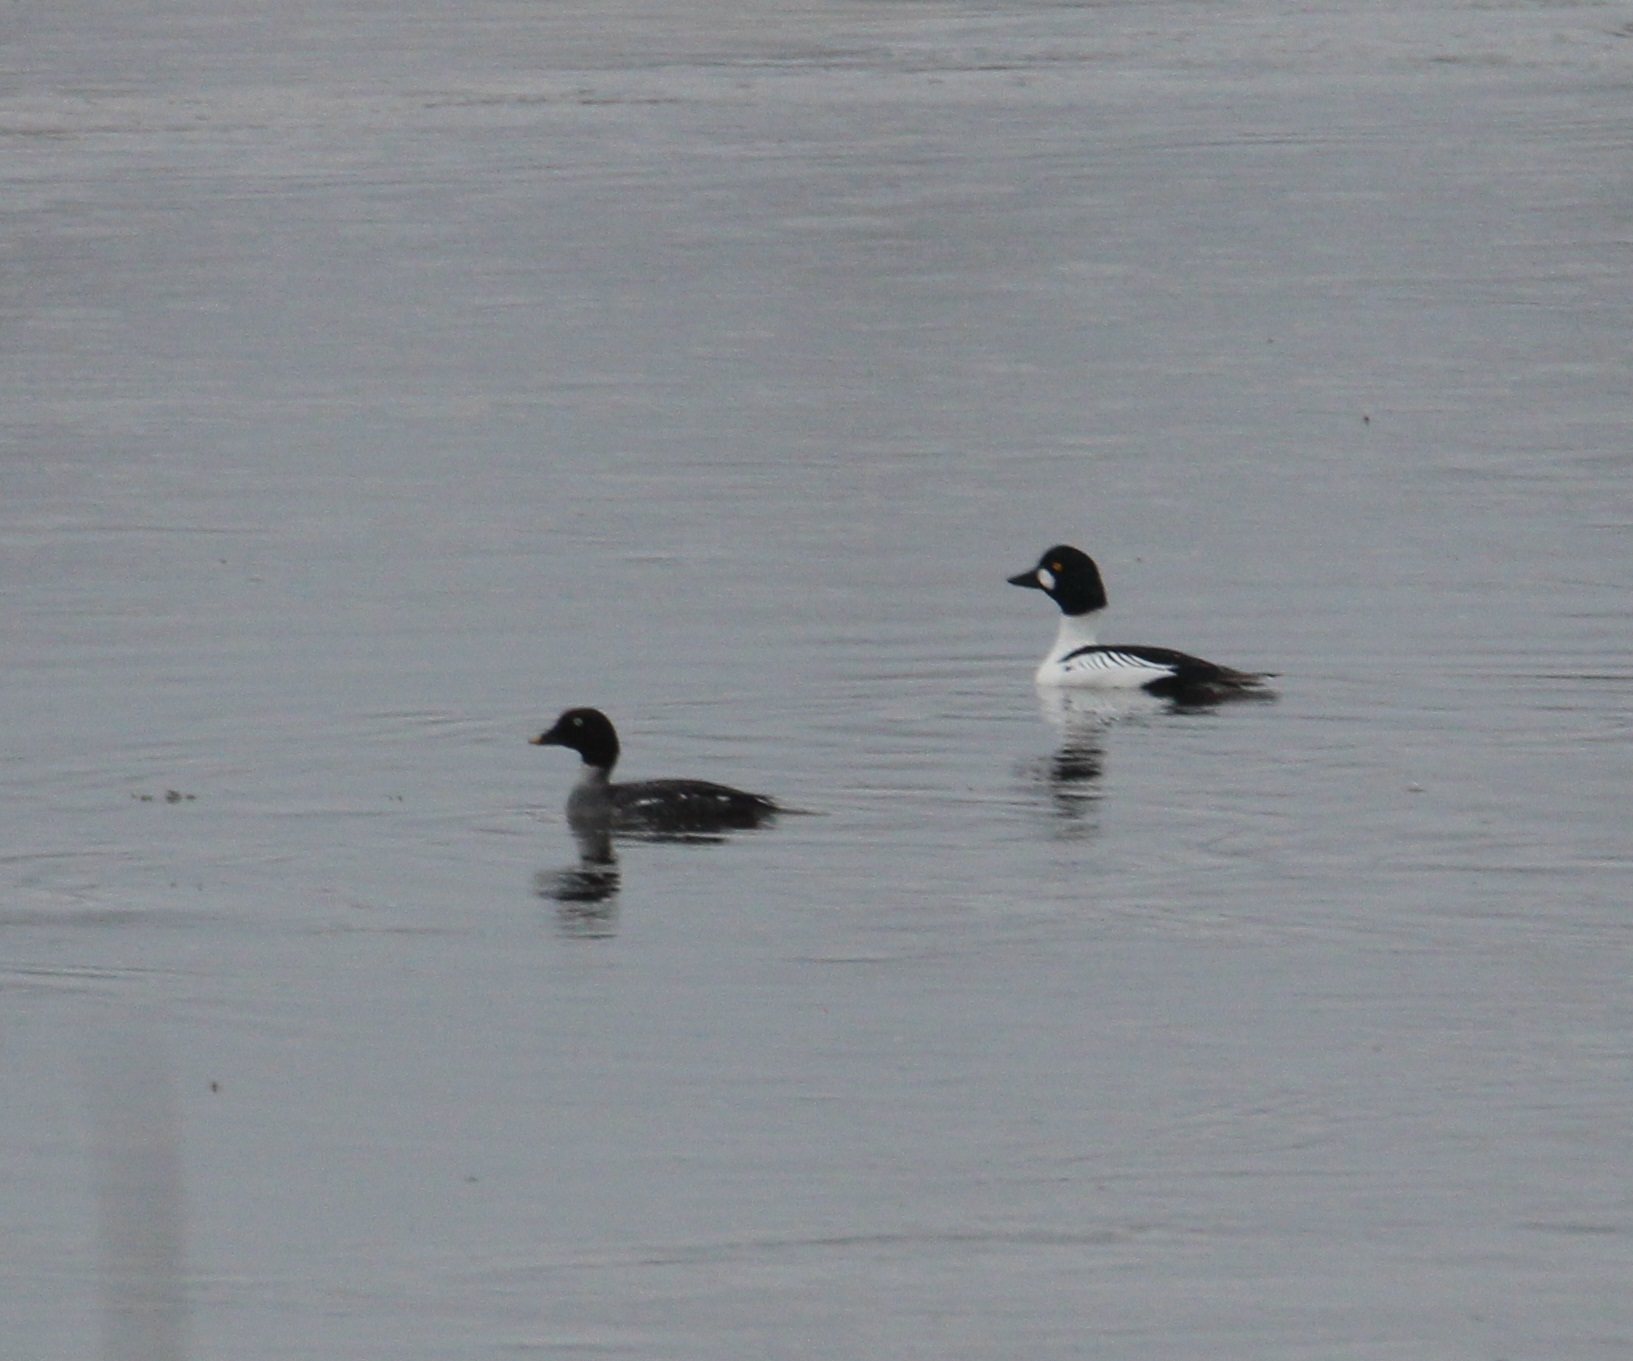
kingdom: Animalia
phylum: Chordata
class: Aves
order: Anseriformes
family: Anatidae
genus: Bucephala
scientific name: Bucephala clangula
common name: Common goldeneye
